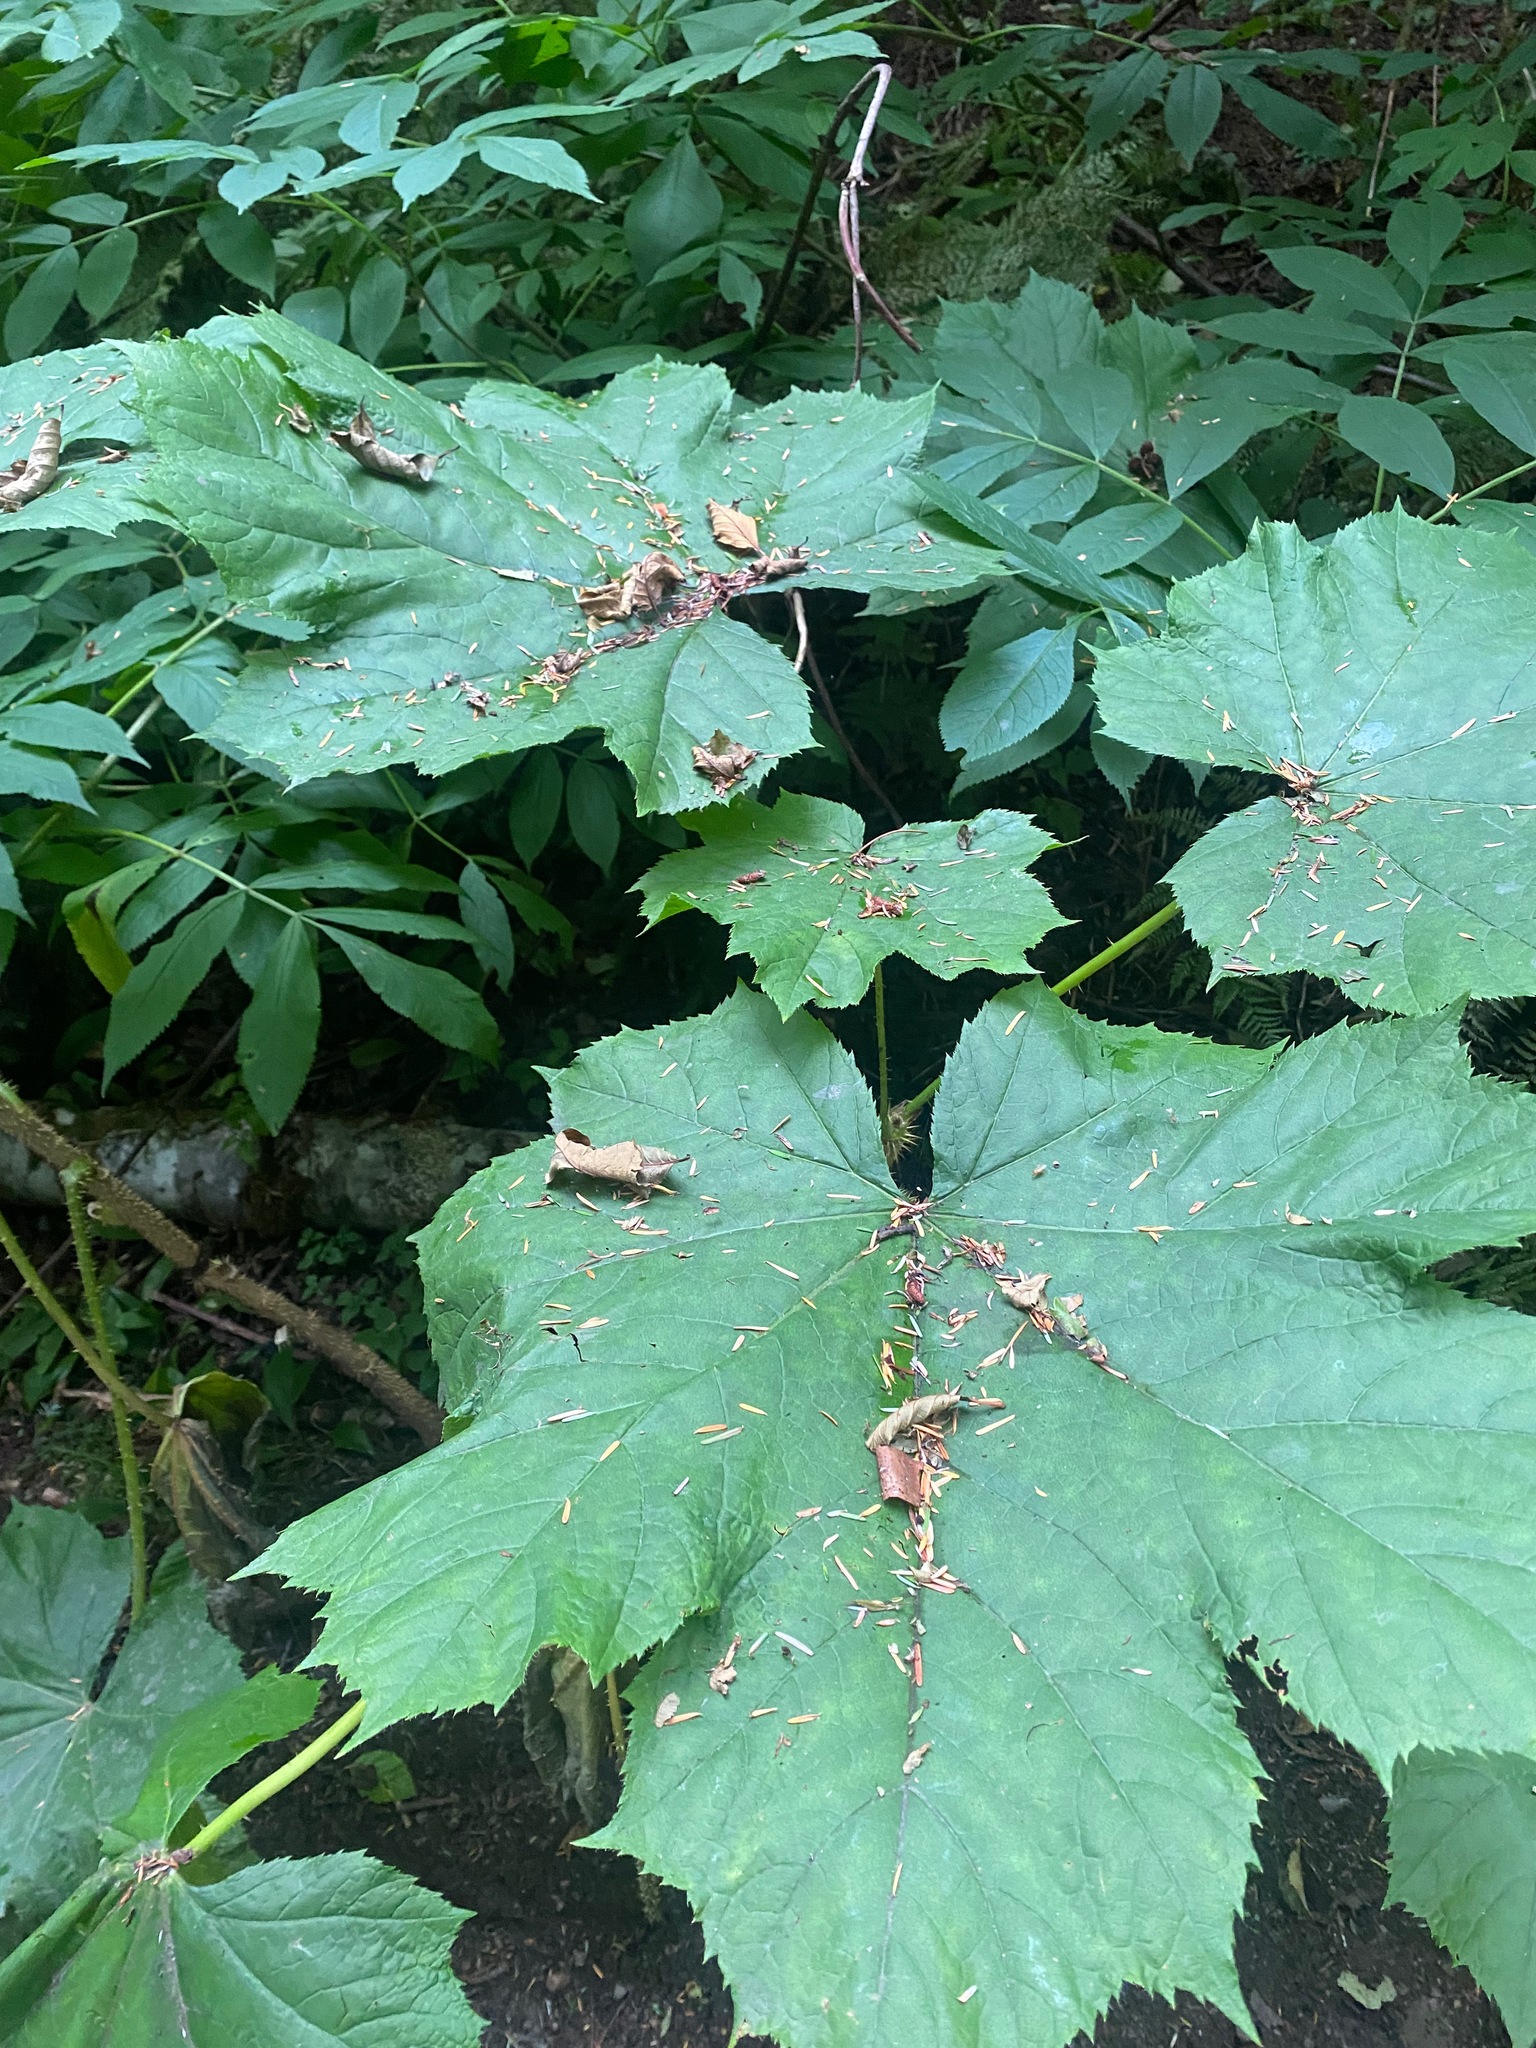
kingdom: Plantae
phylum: Tracheophyta
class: Magnoliopsida
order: Apiales
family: Araliaceae
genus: Oplopanax
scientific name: Oplopanax horridus
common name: Devil's walking-stick
